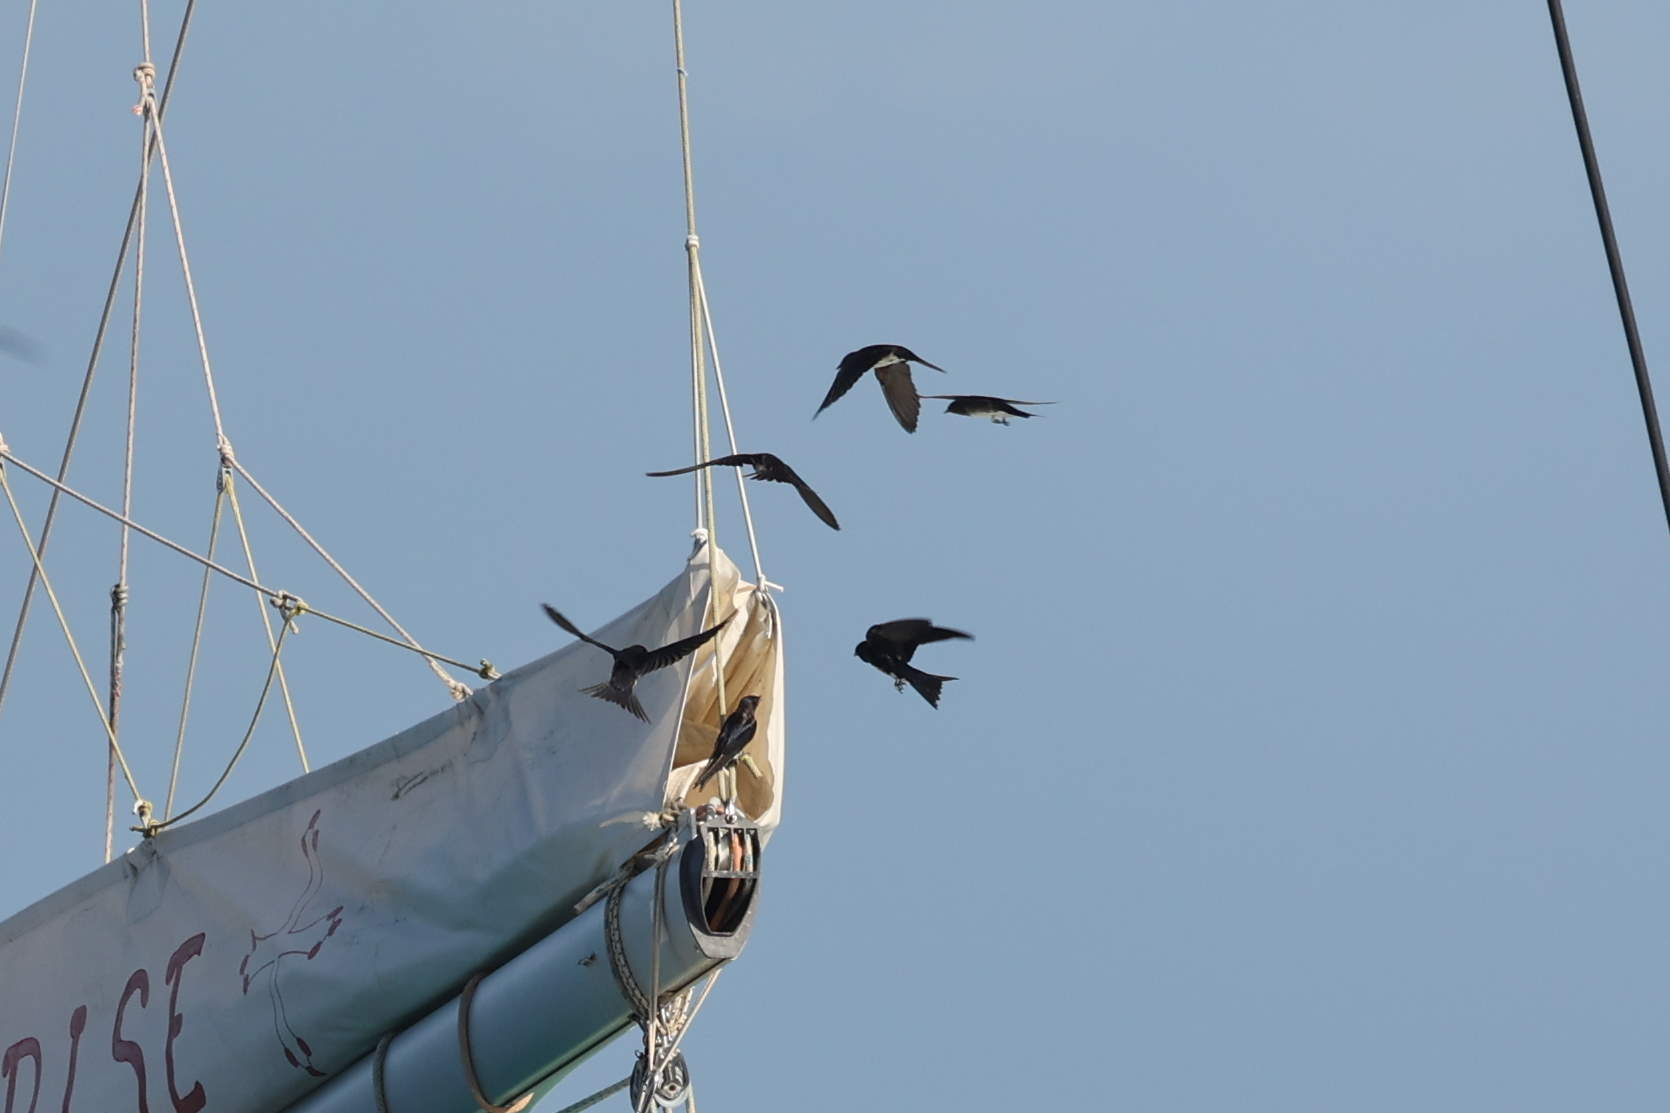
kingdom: Animalia
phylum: Chordata
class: Aves
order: Passeriformes
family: Hirundinidae
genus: Progne
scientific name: Progne dominicensis
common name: Caribbean martin
